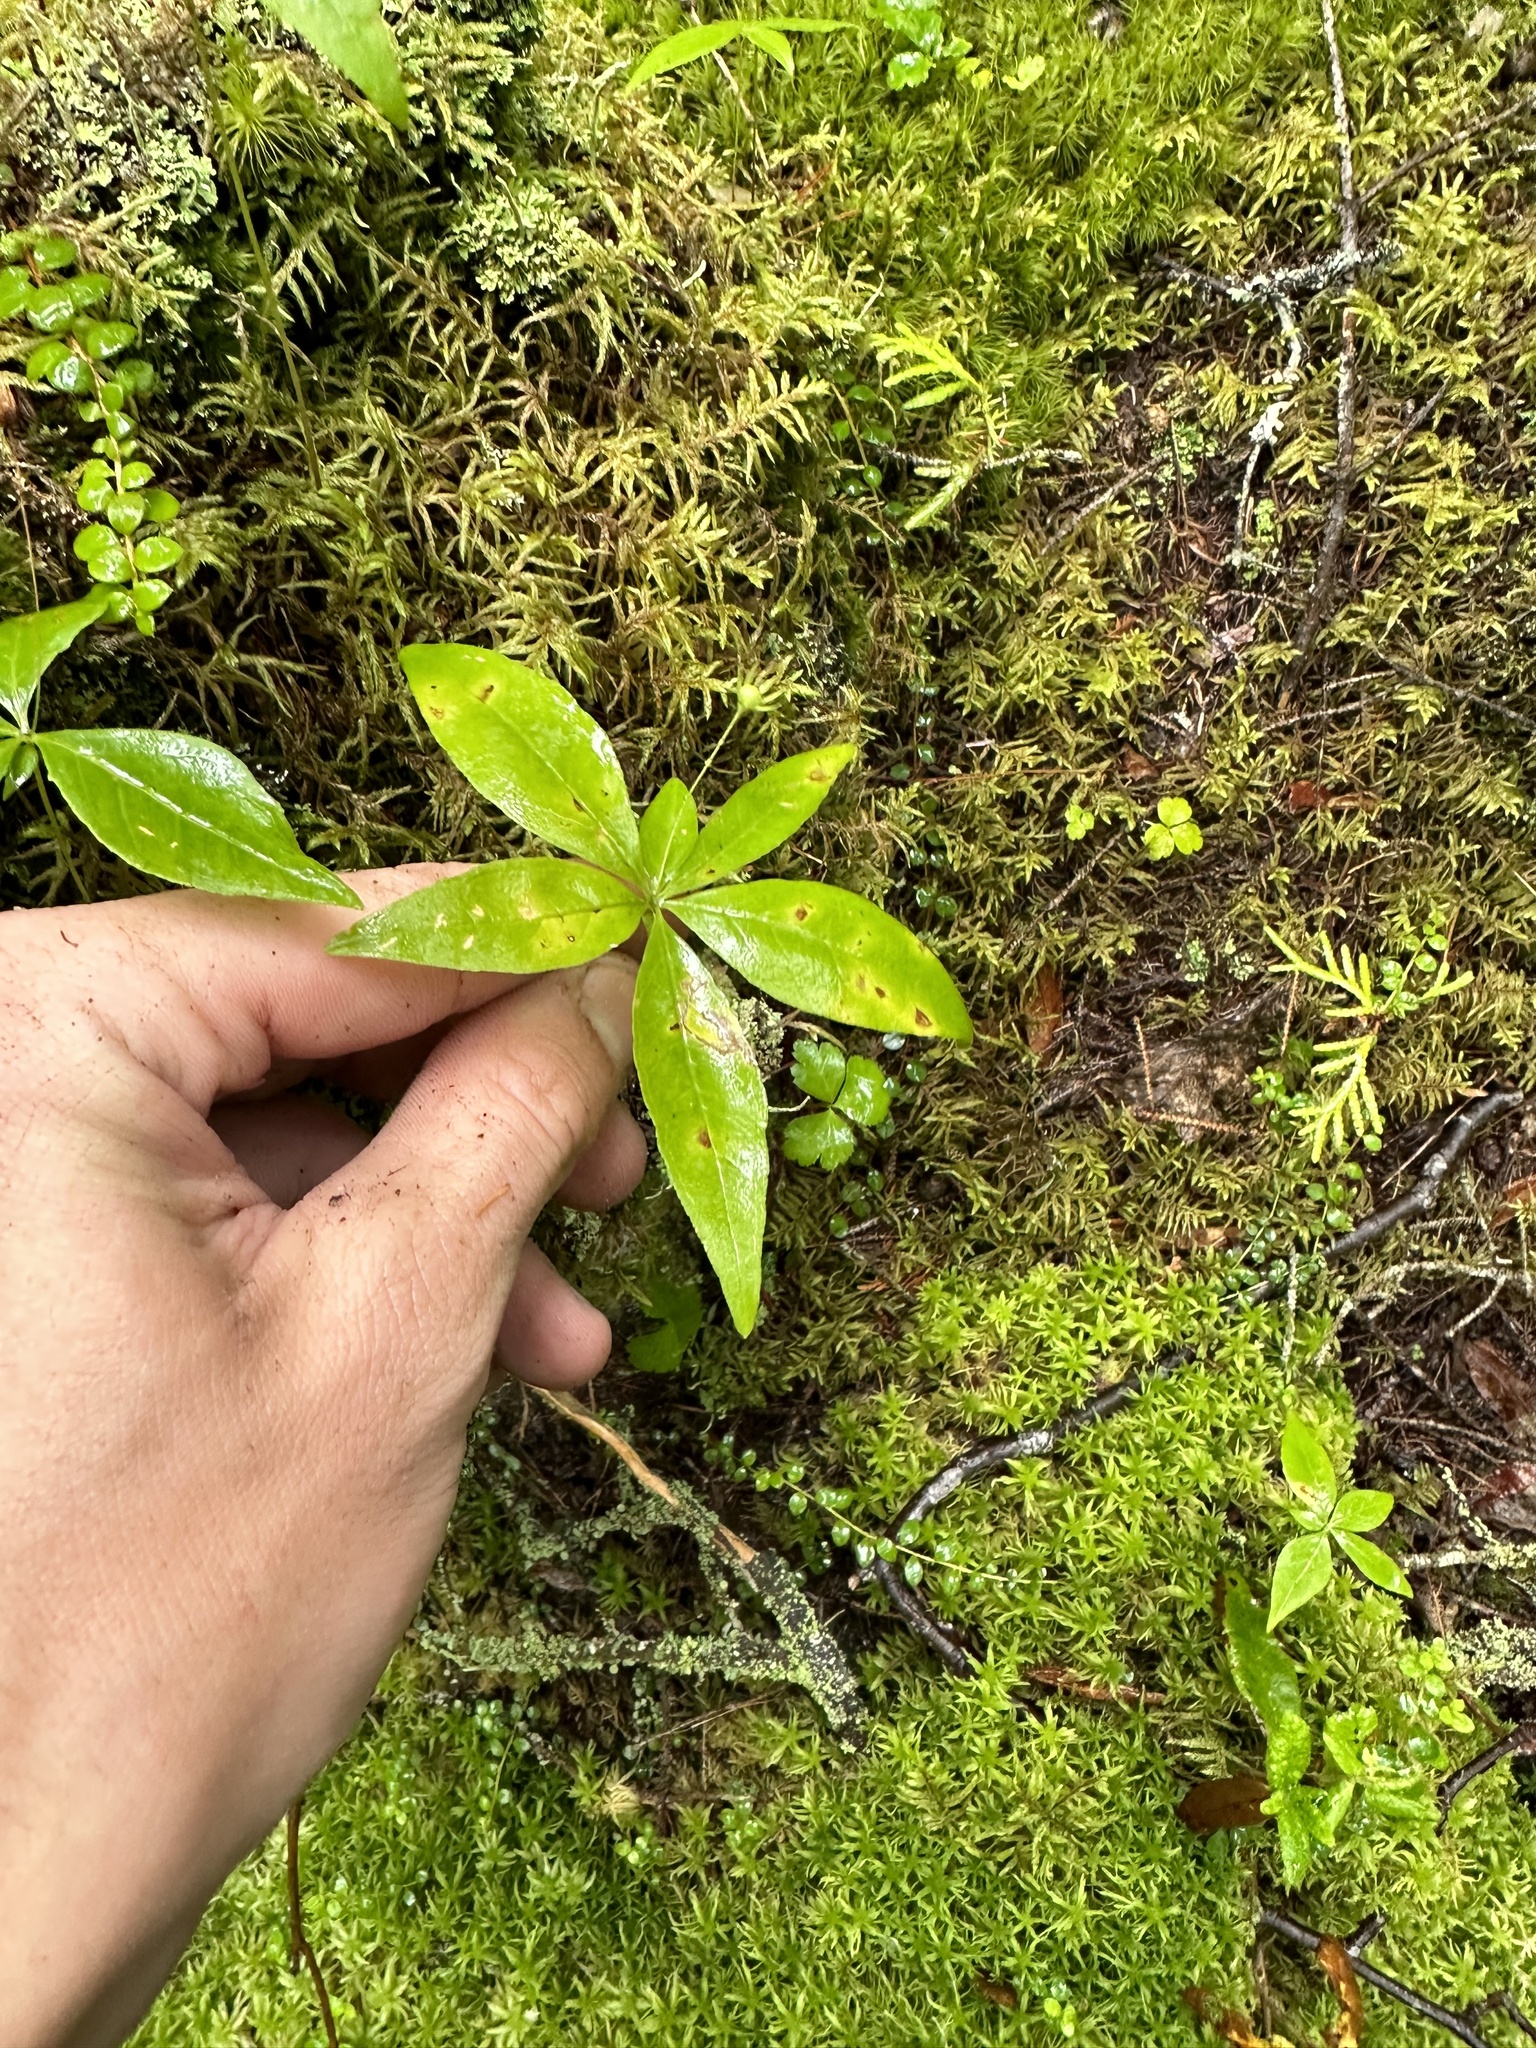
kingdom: Plantae
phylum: Tracheophyta
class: Magnoliopsida
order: Ericales
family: Primulaceae
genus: Lysimachia
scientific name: Lysimachia borealis
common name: American starflower
